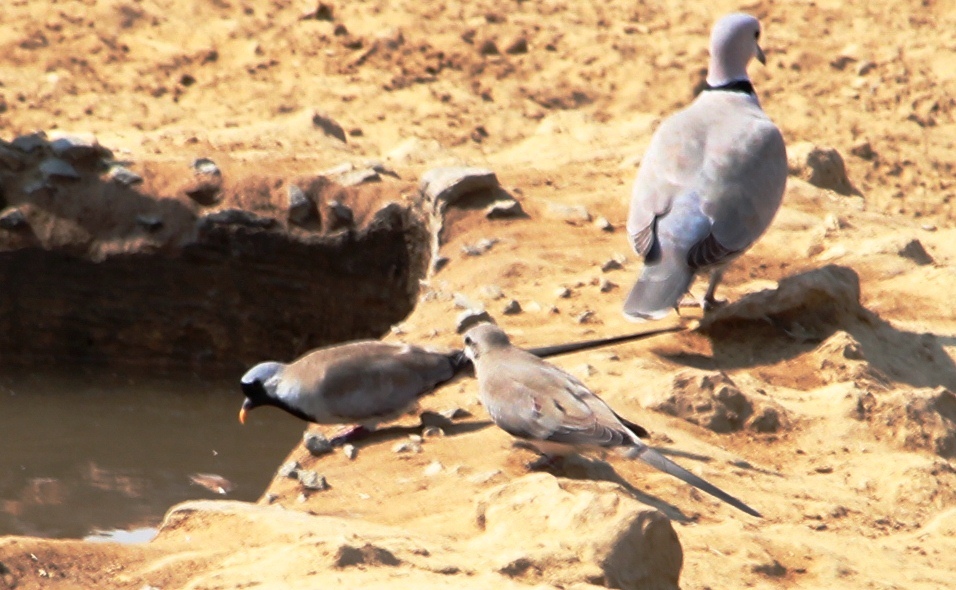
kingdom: Animalia
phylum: Chordata
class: Aves
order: Columbiformes
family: Columbidae
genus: Oena
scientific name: Oena capensis
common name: Namaqua dove
